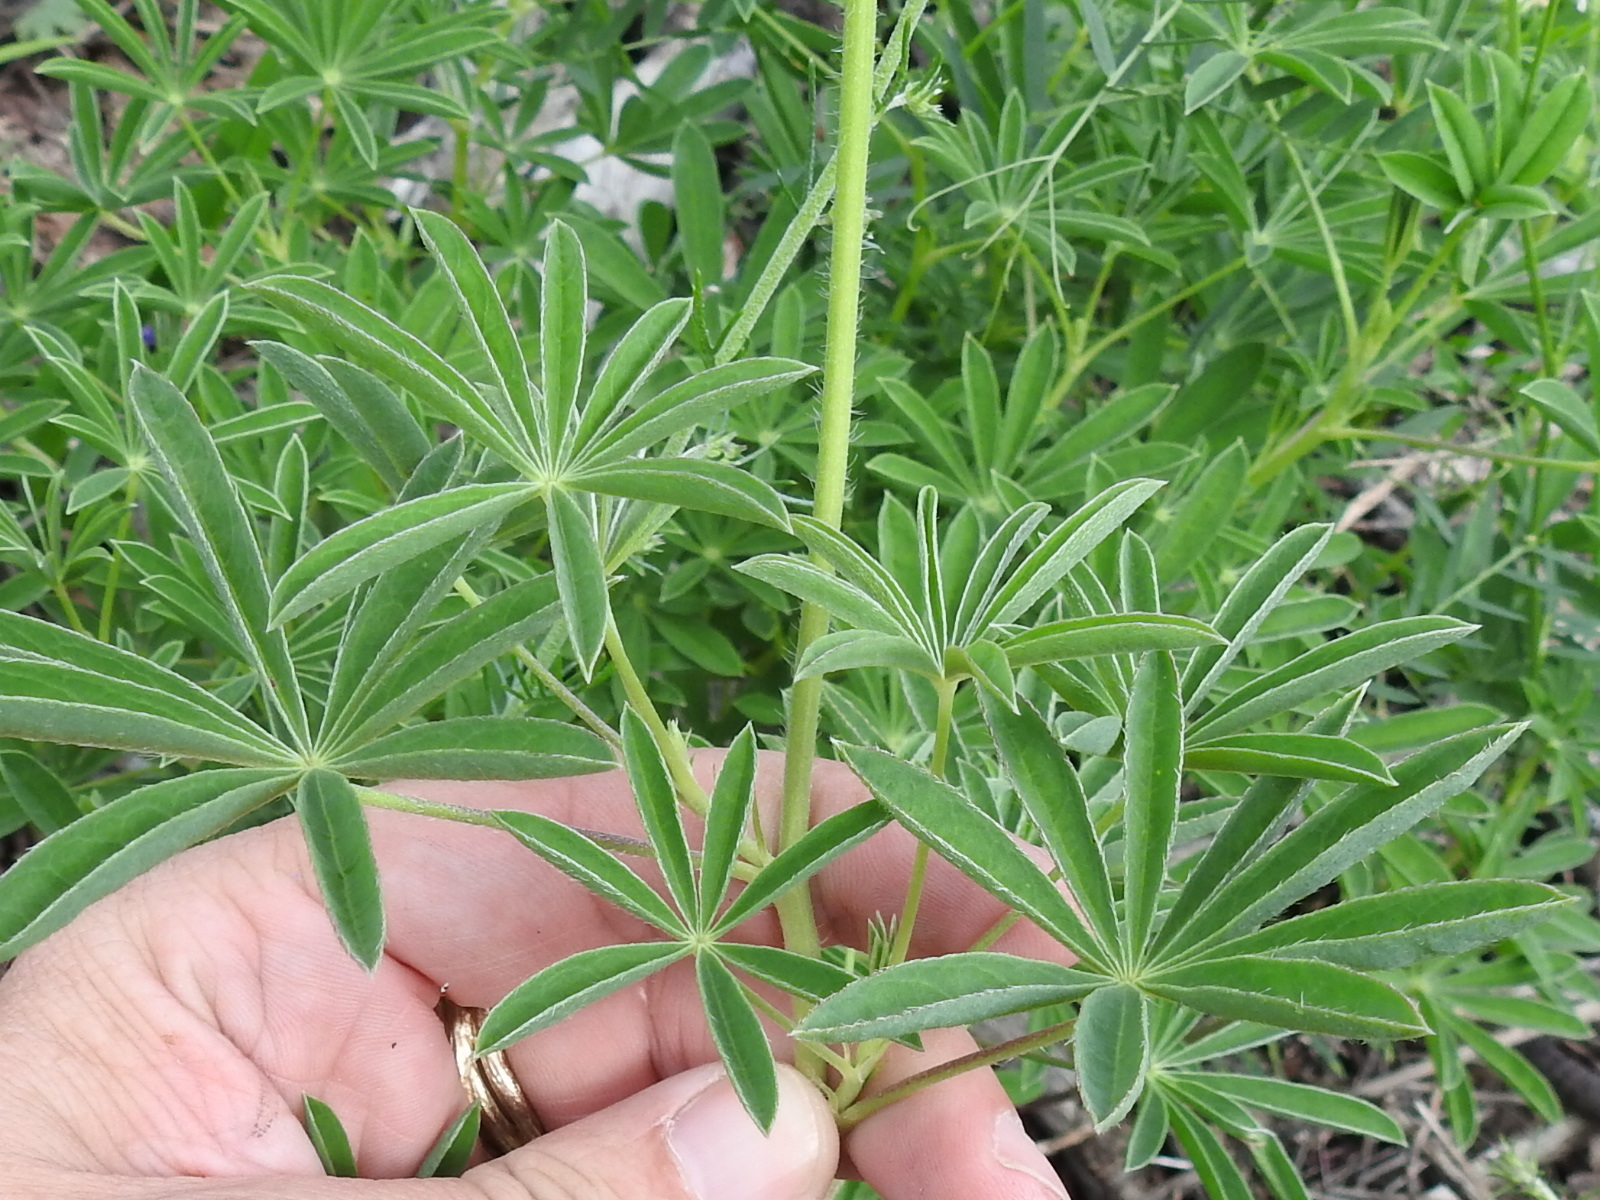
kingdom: Plantae
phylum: Tracheophyta
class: Magnoliopsida
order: Fabales
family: Fabaceae
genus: Lupinus
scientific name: Lupinus neomexicanus
